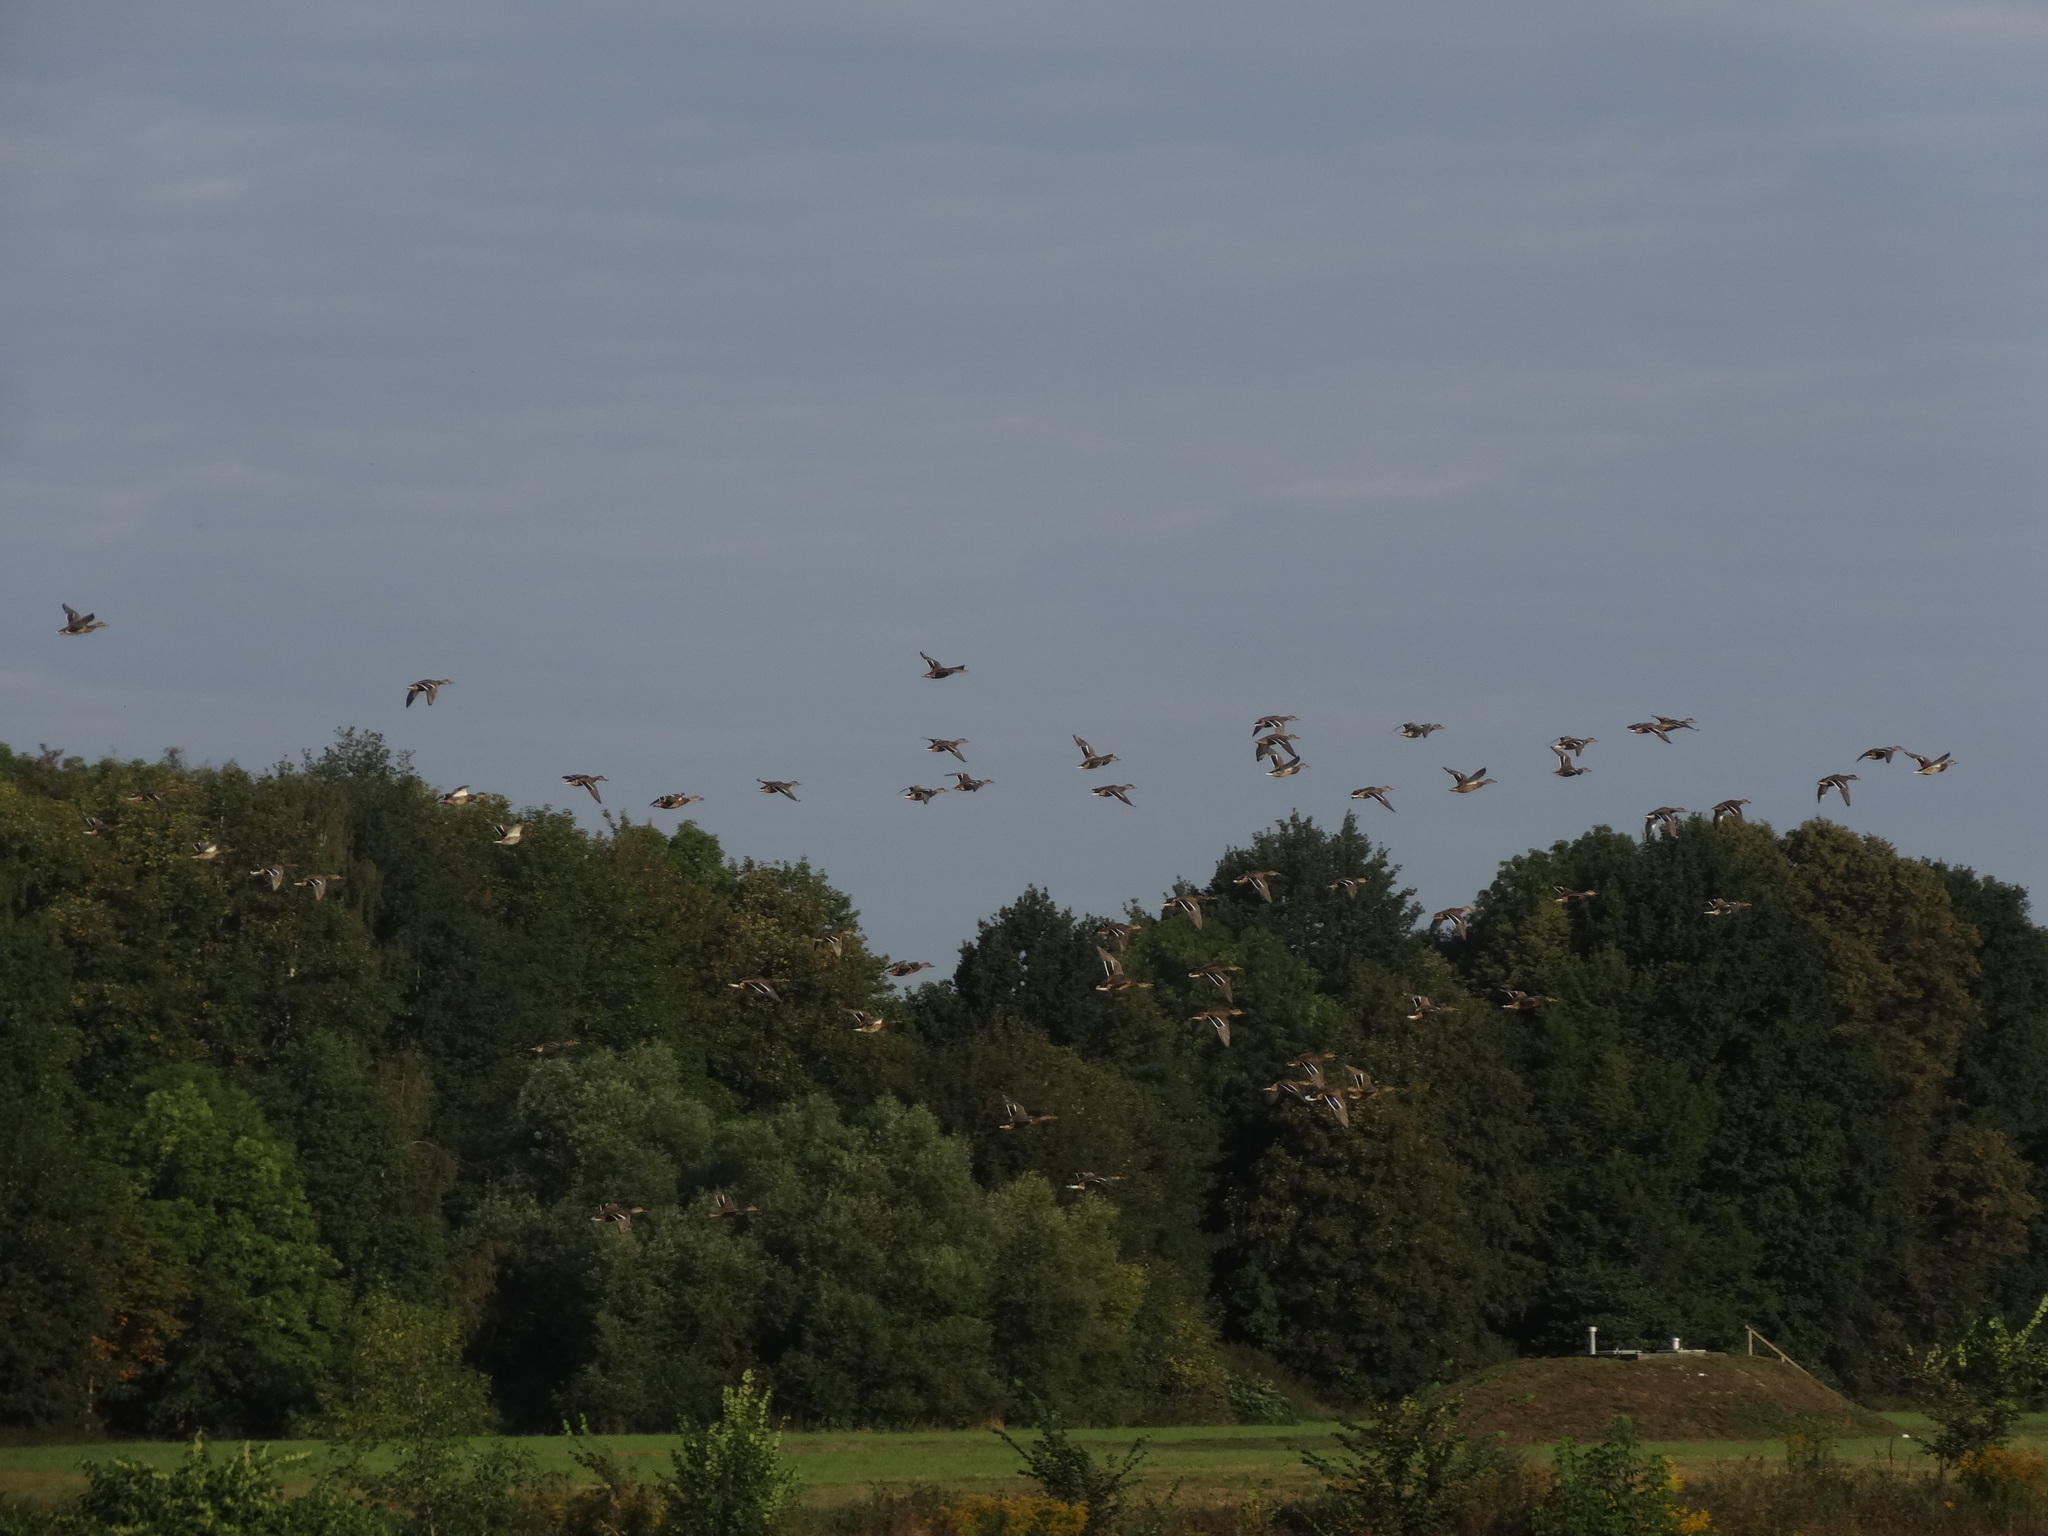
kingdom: Animalia
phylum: Chordata
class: Aves
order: Anseriformes
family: Anatidae
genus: Anas
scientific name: Anas platyrhynchos
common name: Mallard
